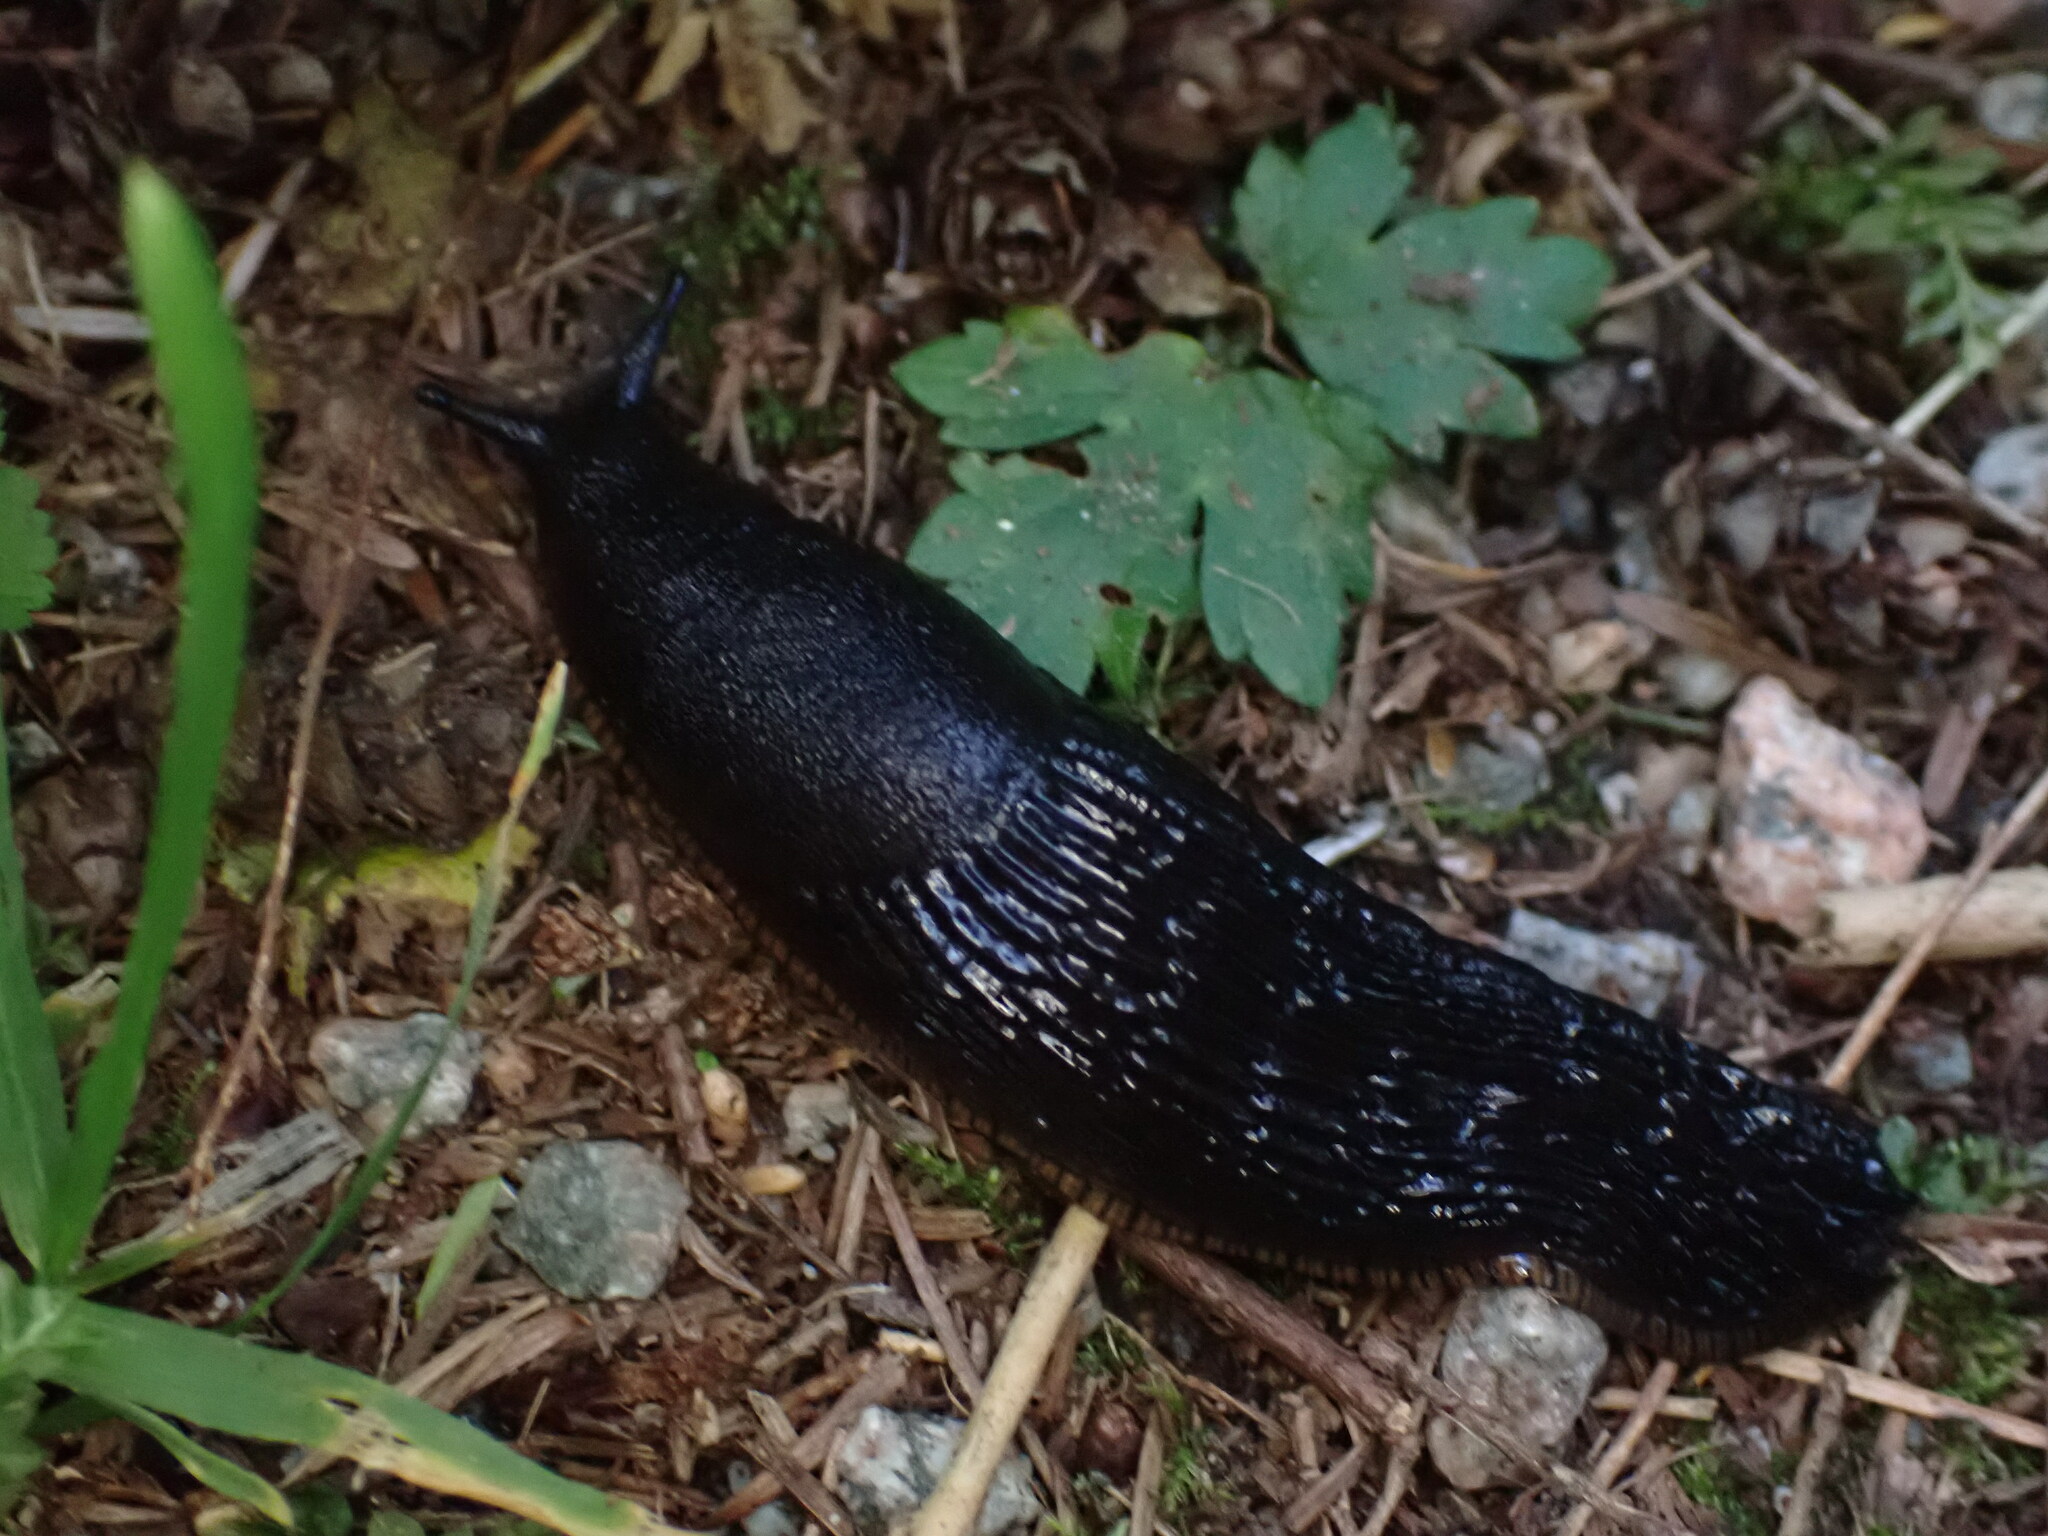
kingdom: Animalia
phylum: Mollusca
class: Gastropoda
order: Stylommatophora
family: Arionidae
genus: Arion
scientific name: Arion
